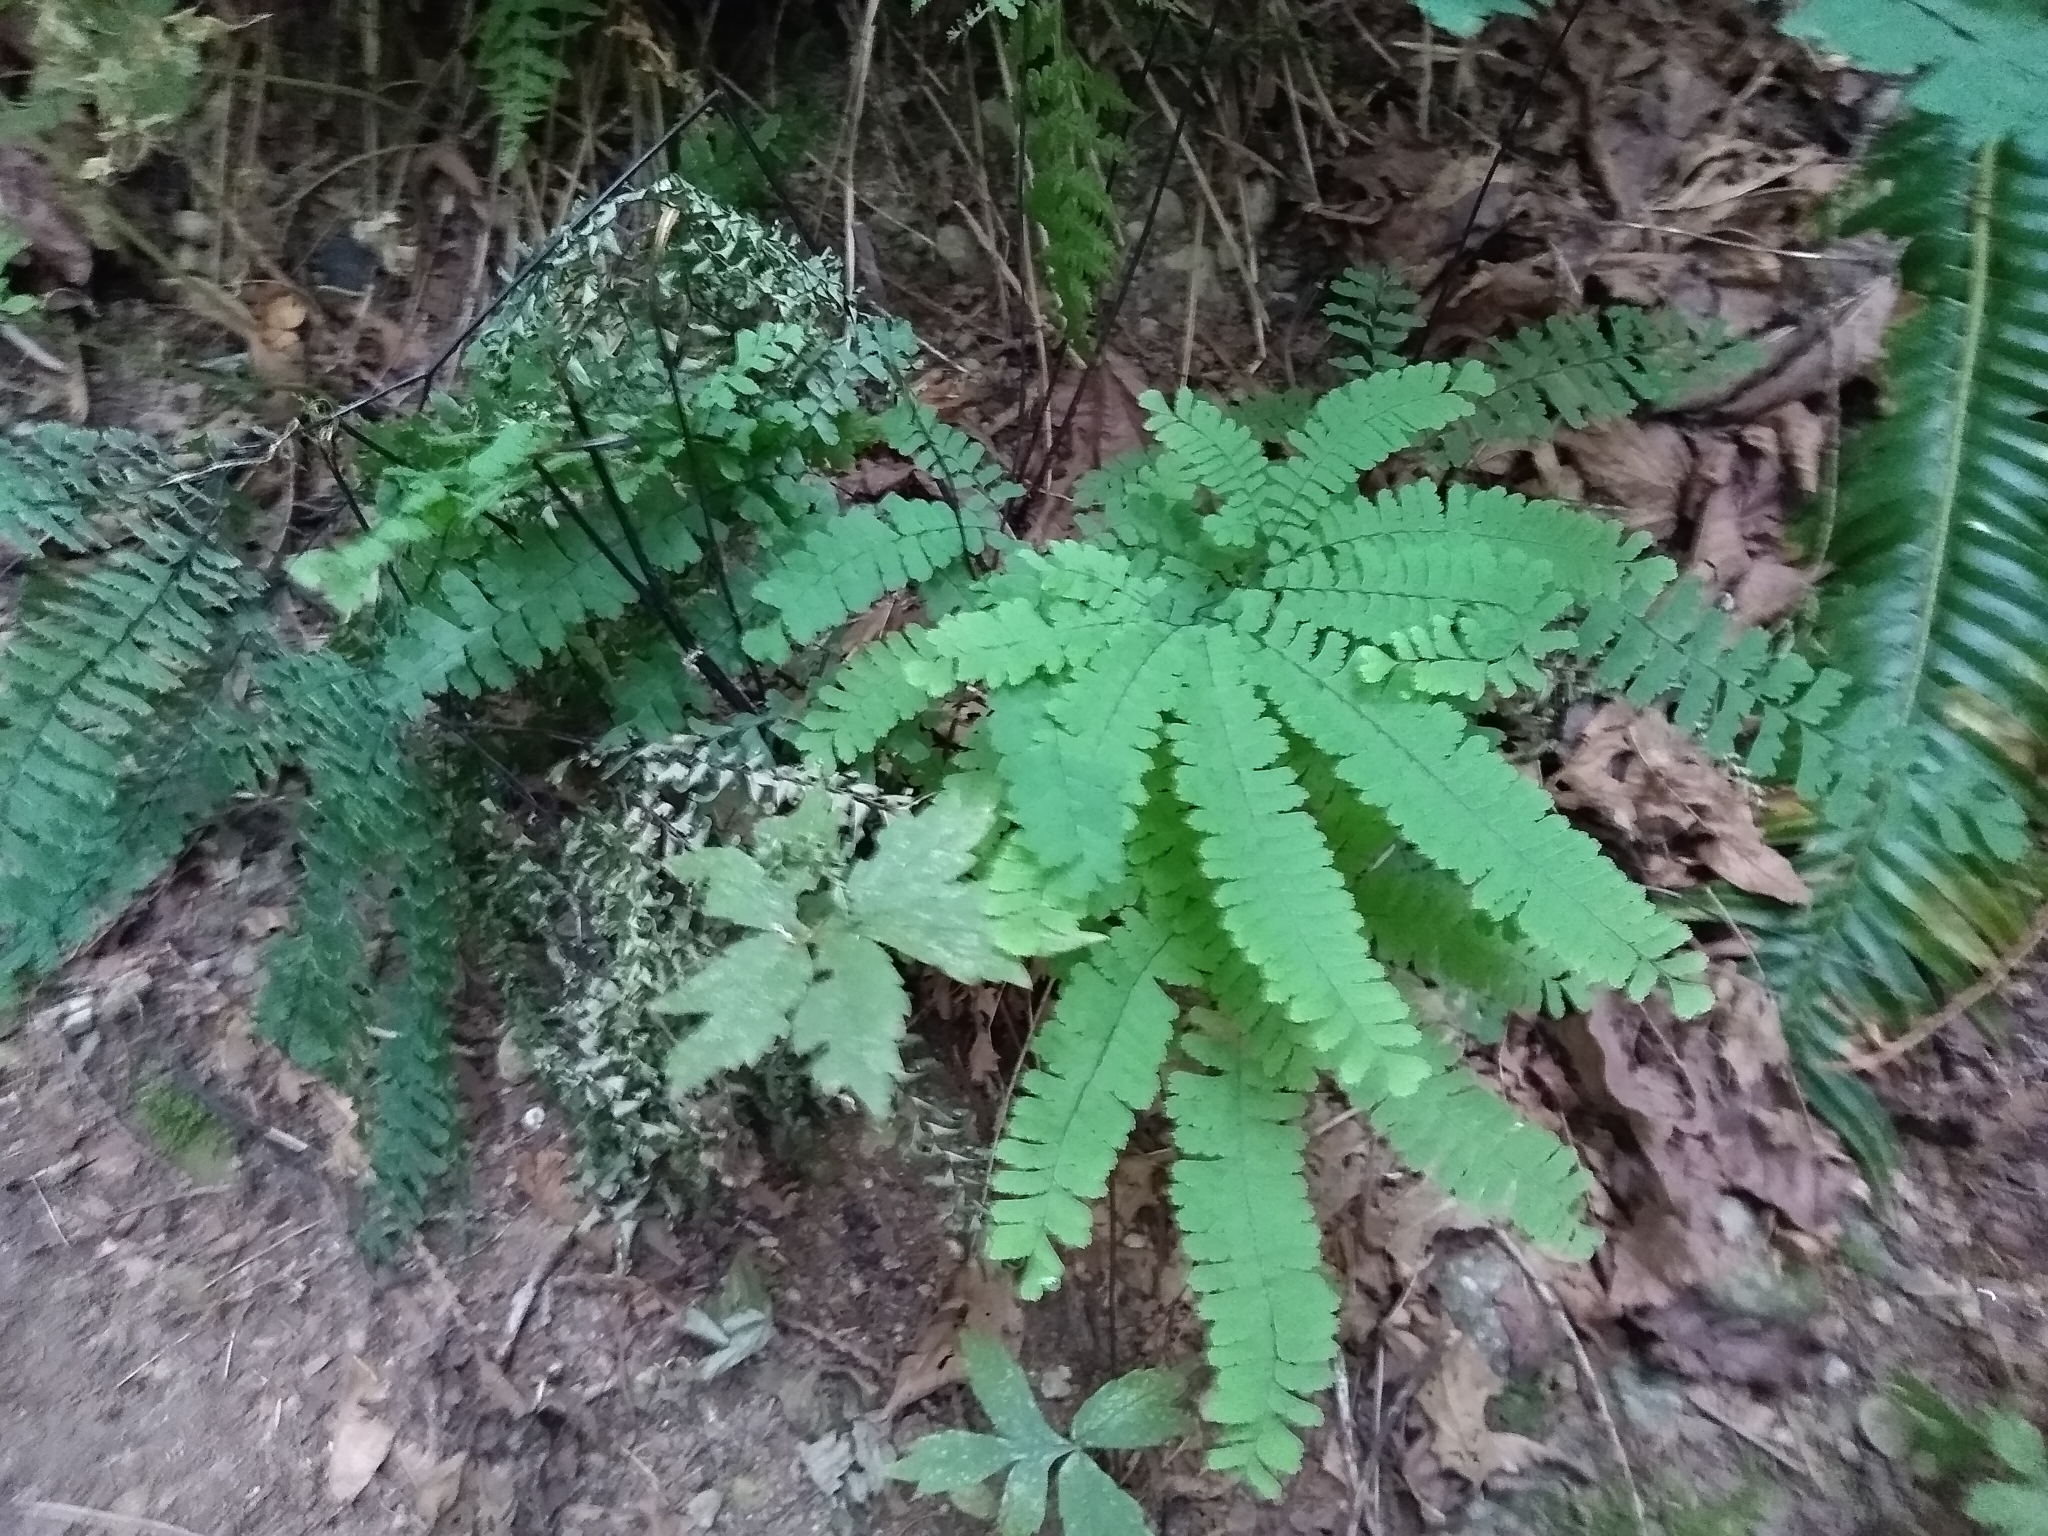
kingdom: Plantae
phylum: Tracheophyta
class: Polypodiopsida
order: Polypodiales
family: Pteridaceae
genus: Adiantum
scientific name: Adiantum aleuticum
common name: Aleutian maidenhair fern
